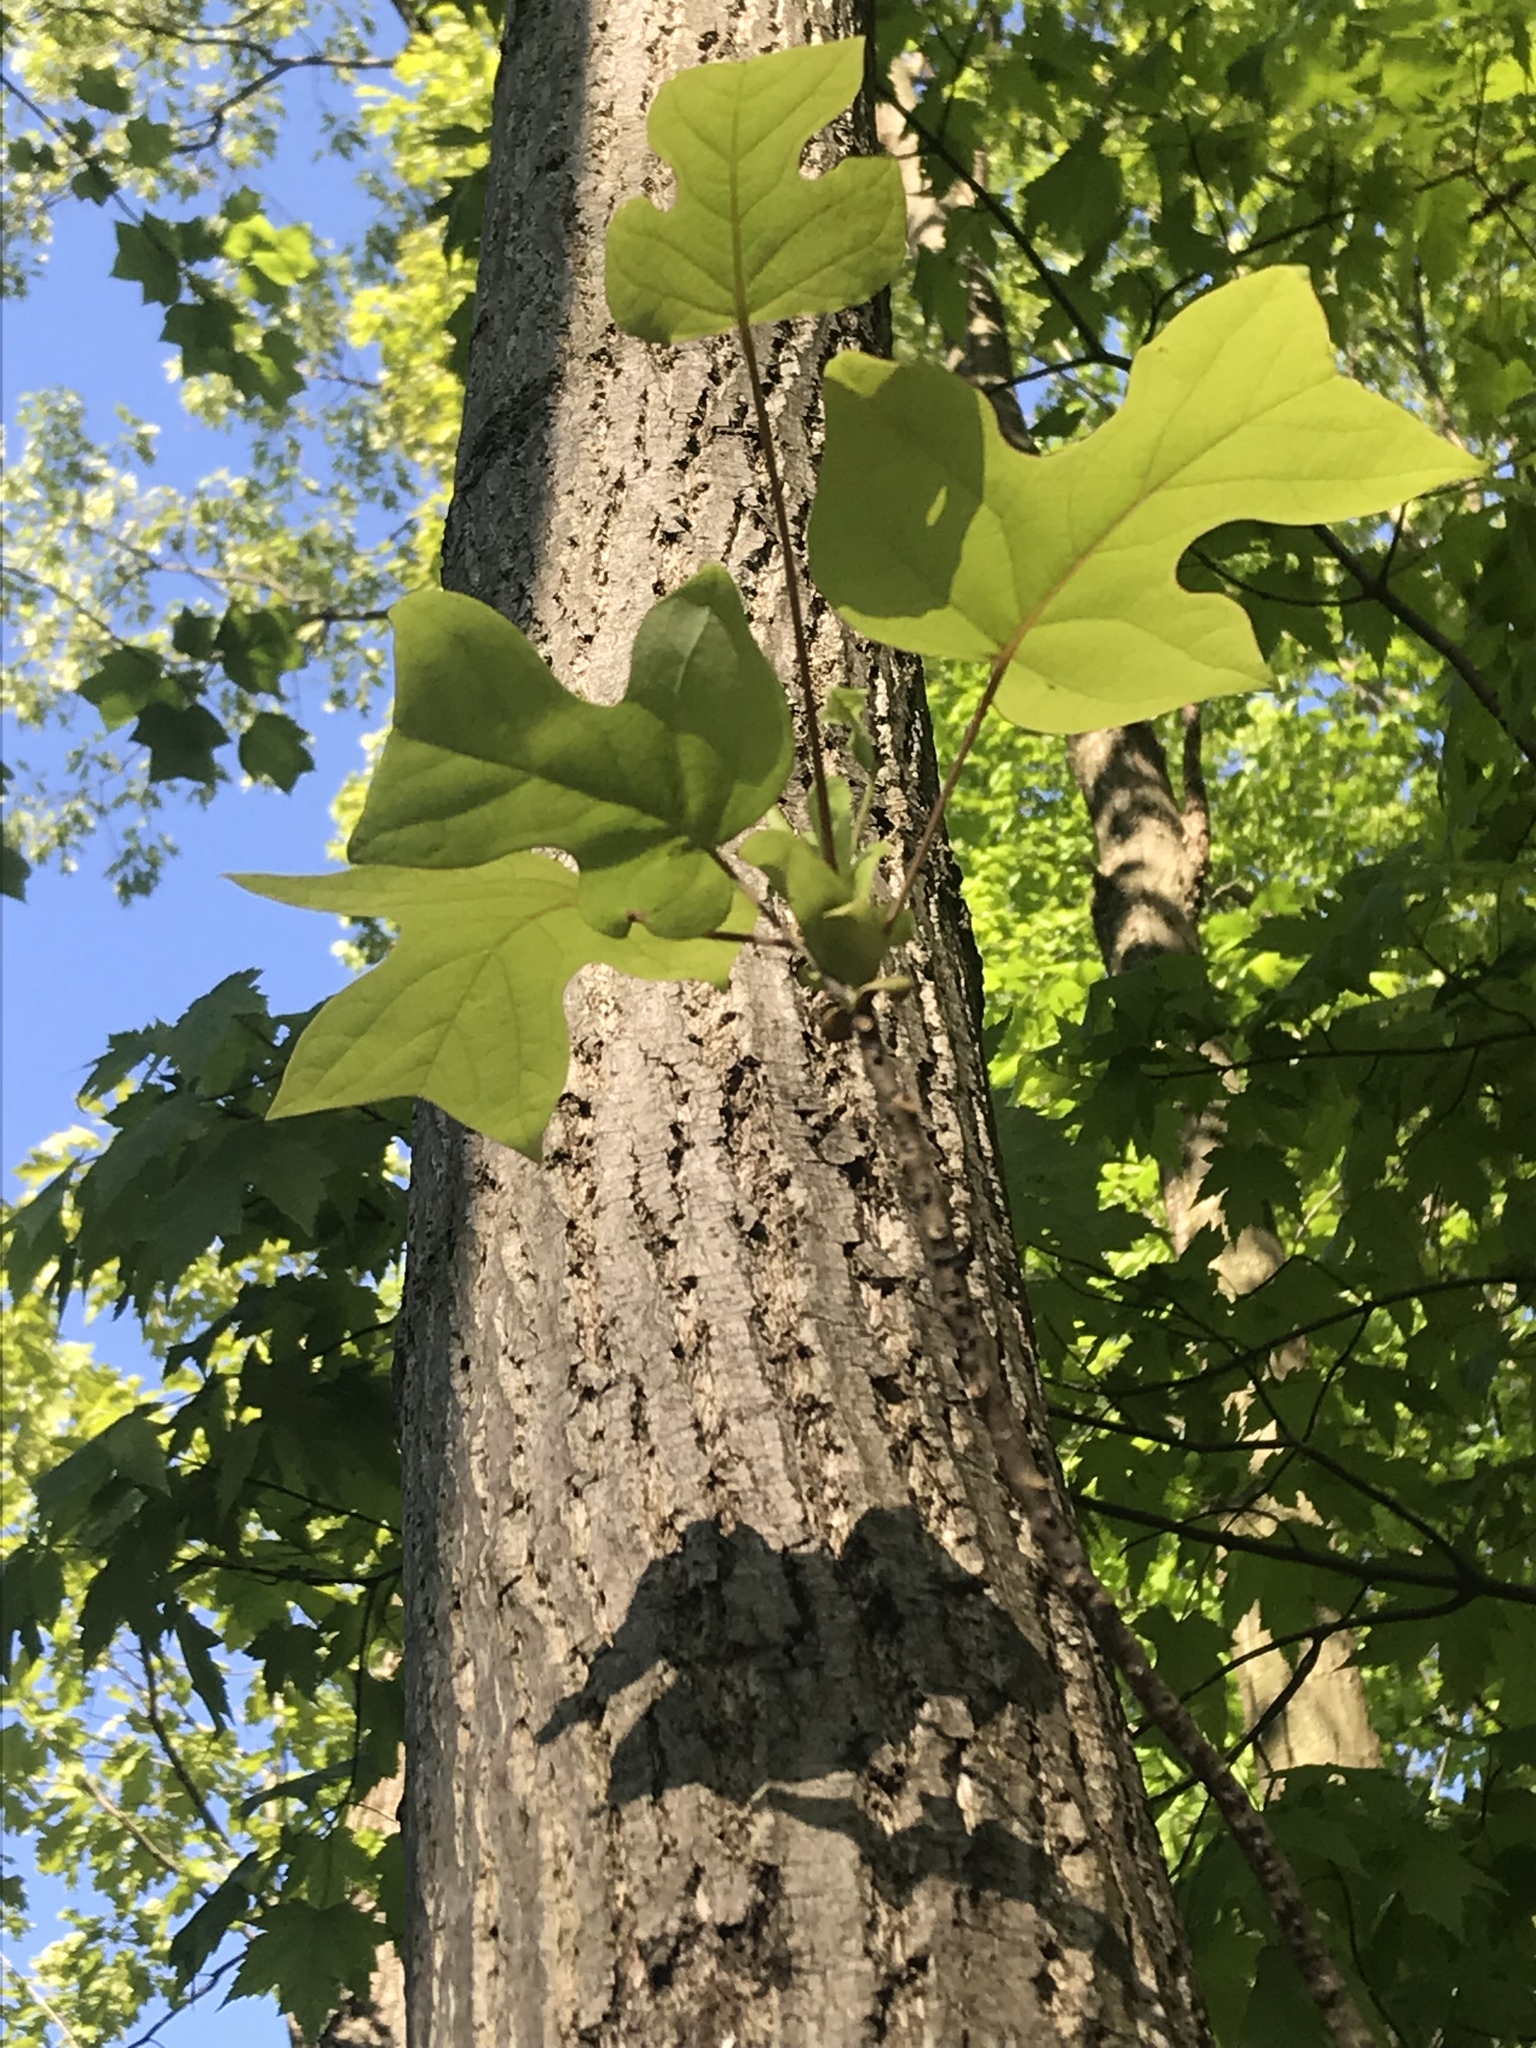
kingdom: Plantae
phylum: Tracheophyta
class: Magnoliopsida
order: Magnoliales
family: Magnoliaceae
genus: Liriodendron
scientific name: Liriodendron tulipifera
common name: Tulip tree
